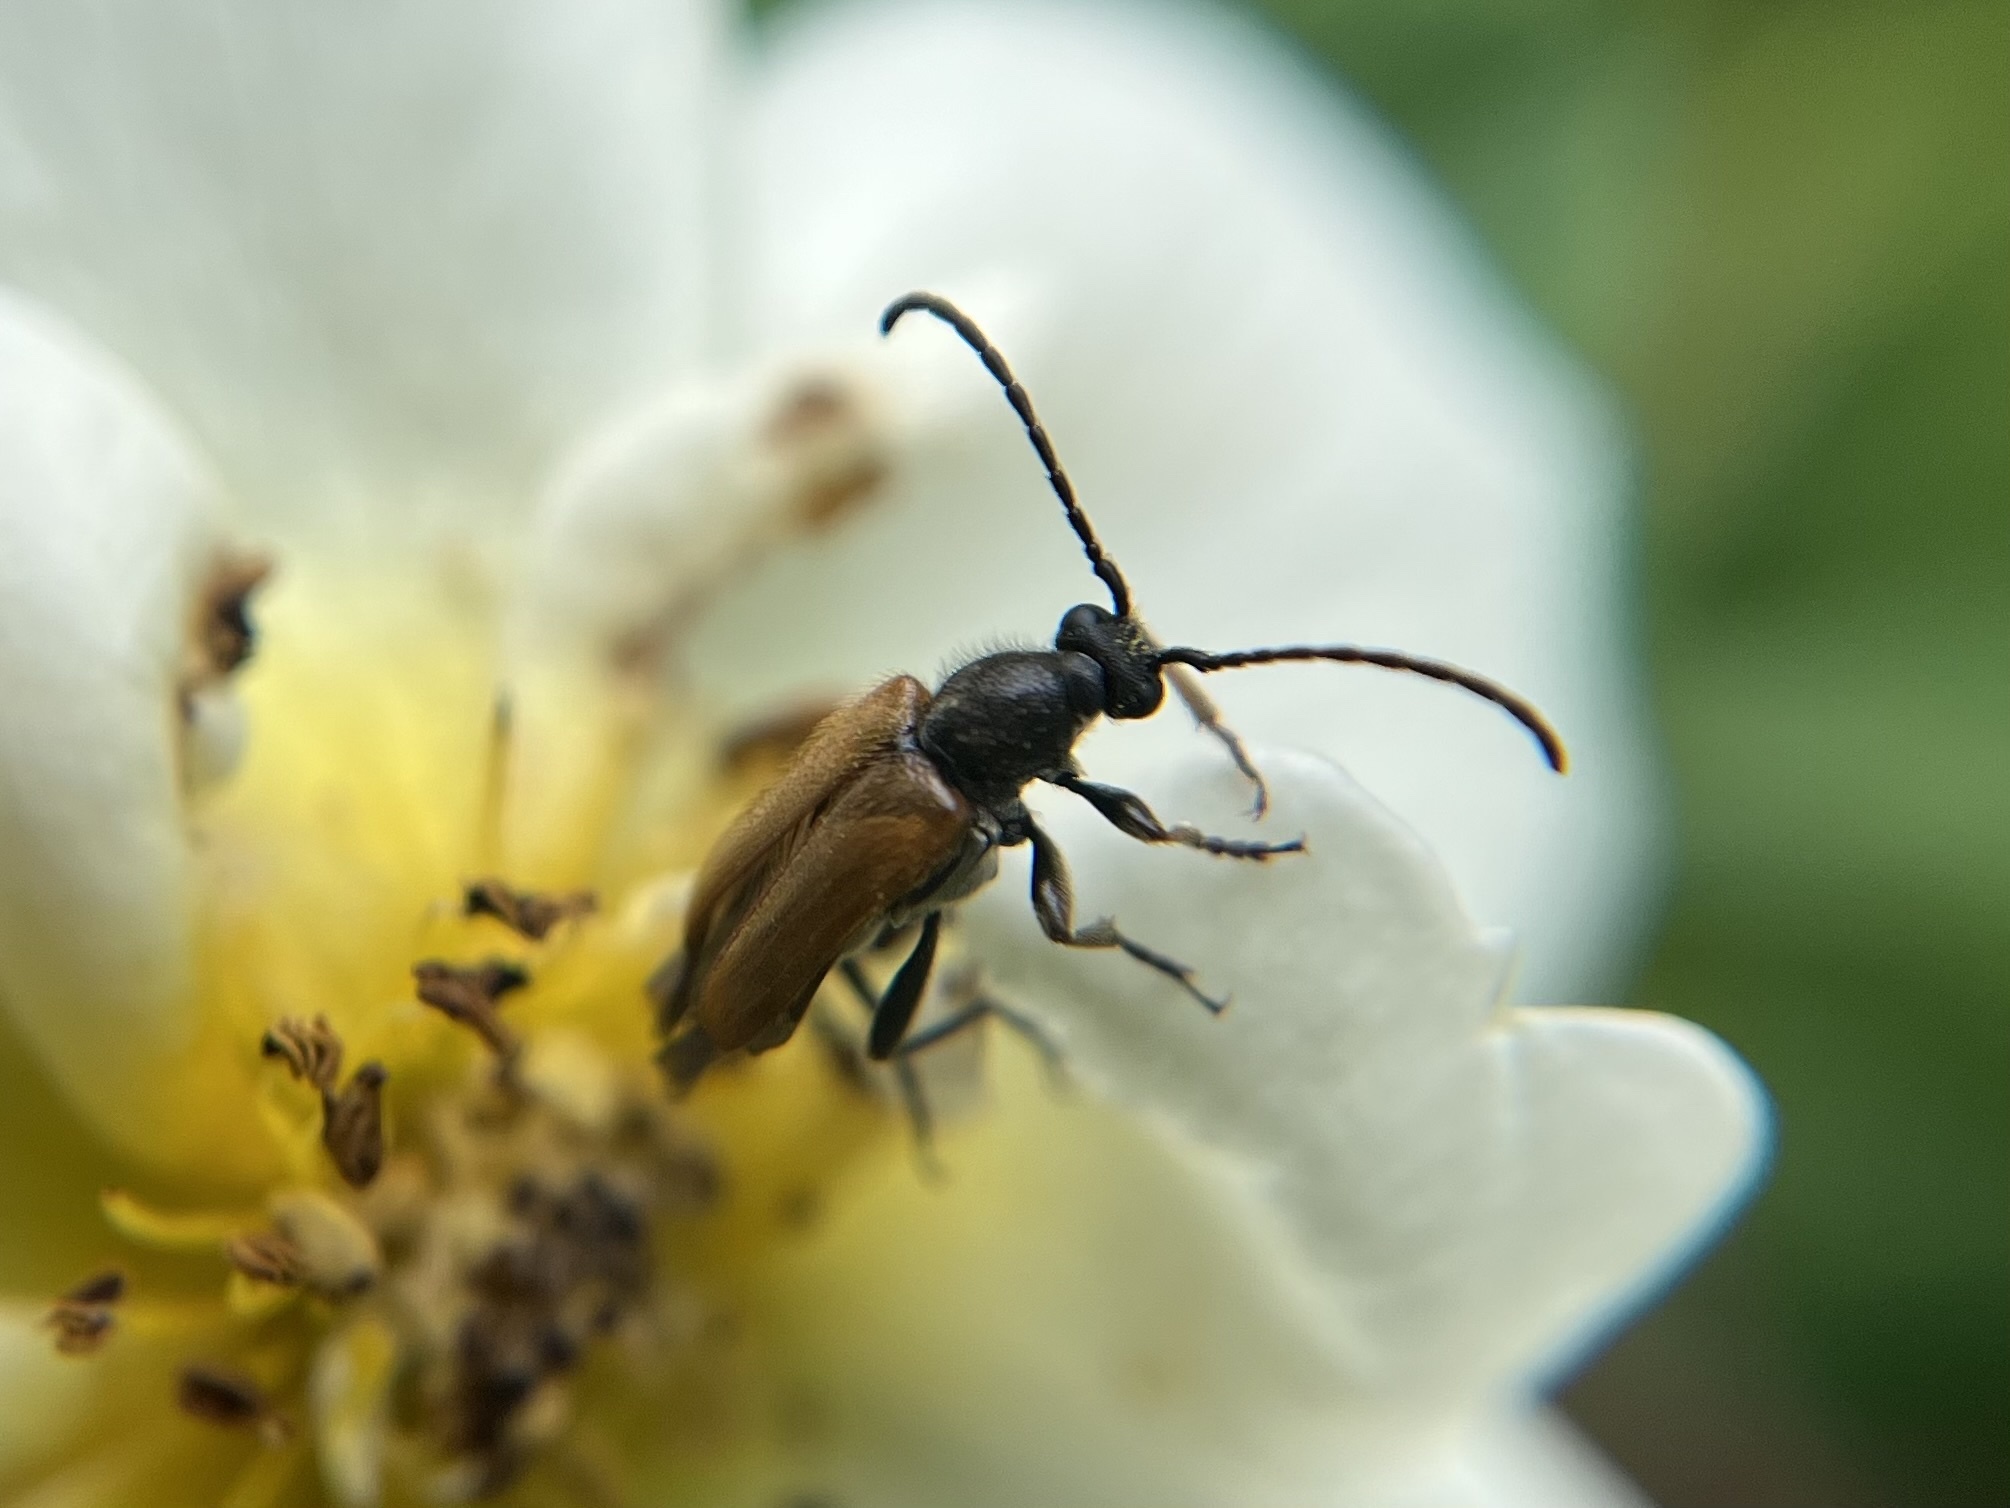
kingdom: Animalia
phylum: Arthropoda
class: Insecta
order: Coleoptera
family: Cerambycidae
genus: Pseudovadonia
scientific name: Pseudovadonia livida
